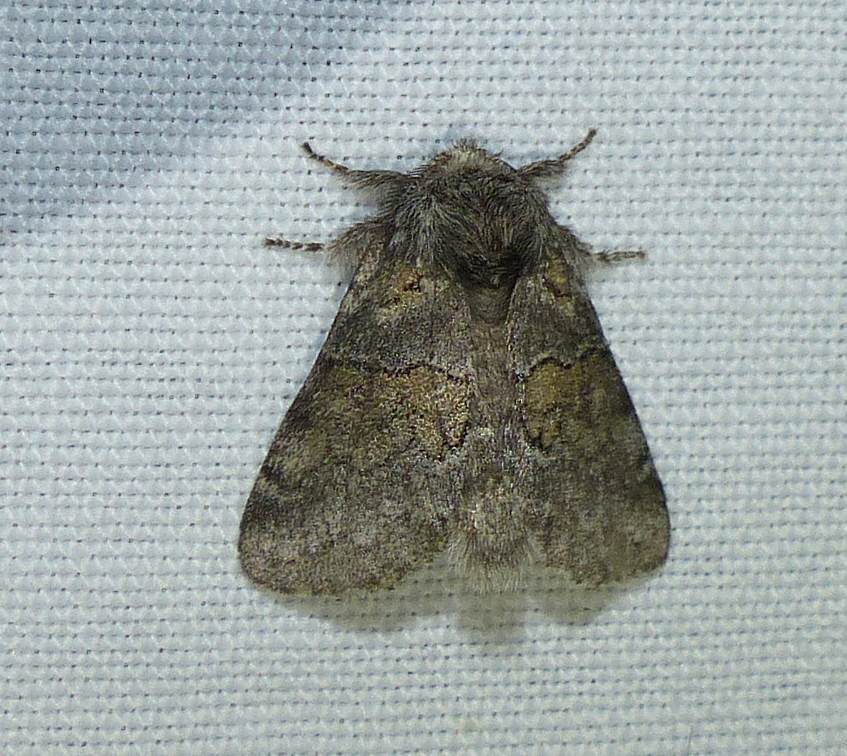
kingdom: Animalia
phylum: Arthropoda
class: Insecta
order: Lepidoptera
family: Notodontidae
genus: Gluphisia
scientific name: Gluphisia septentrionis
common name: Common gluphisia
